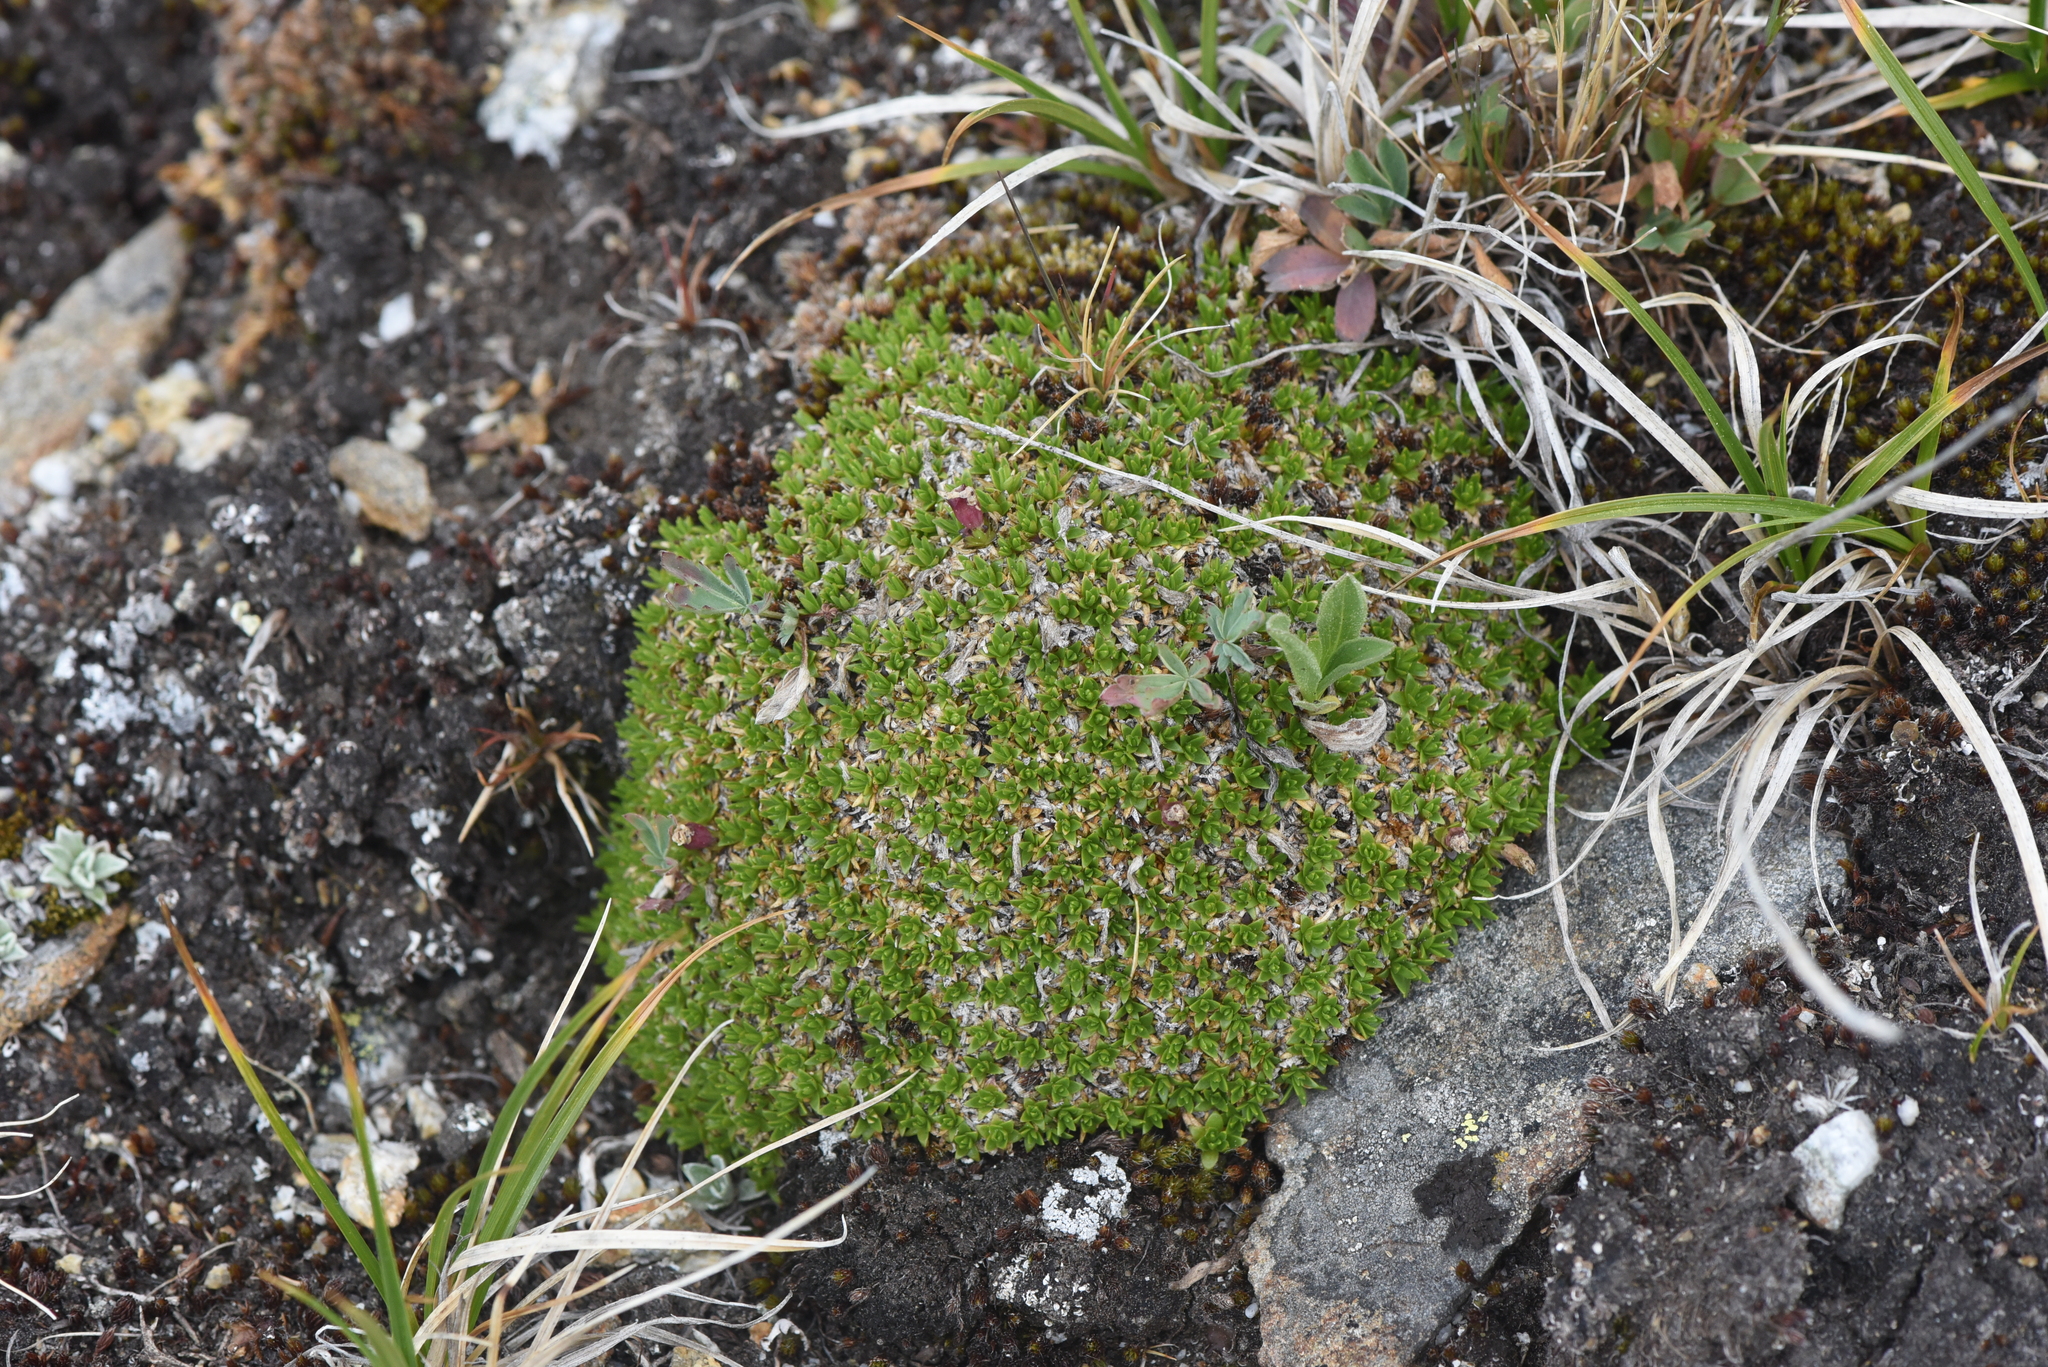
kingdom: Plantae
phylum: Tracheophyta
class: Magnoliopsida
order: Caryophyllales
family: Caryophyllaceae
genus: Silene
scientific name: Silene acaulis
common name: Moss campion
